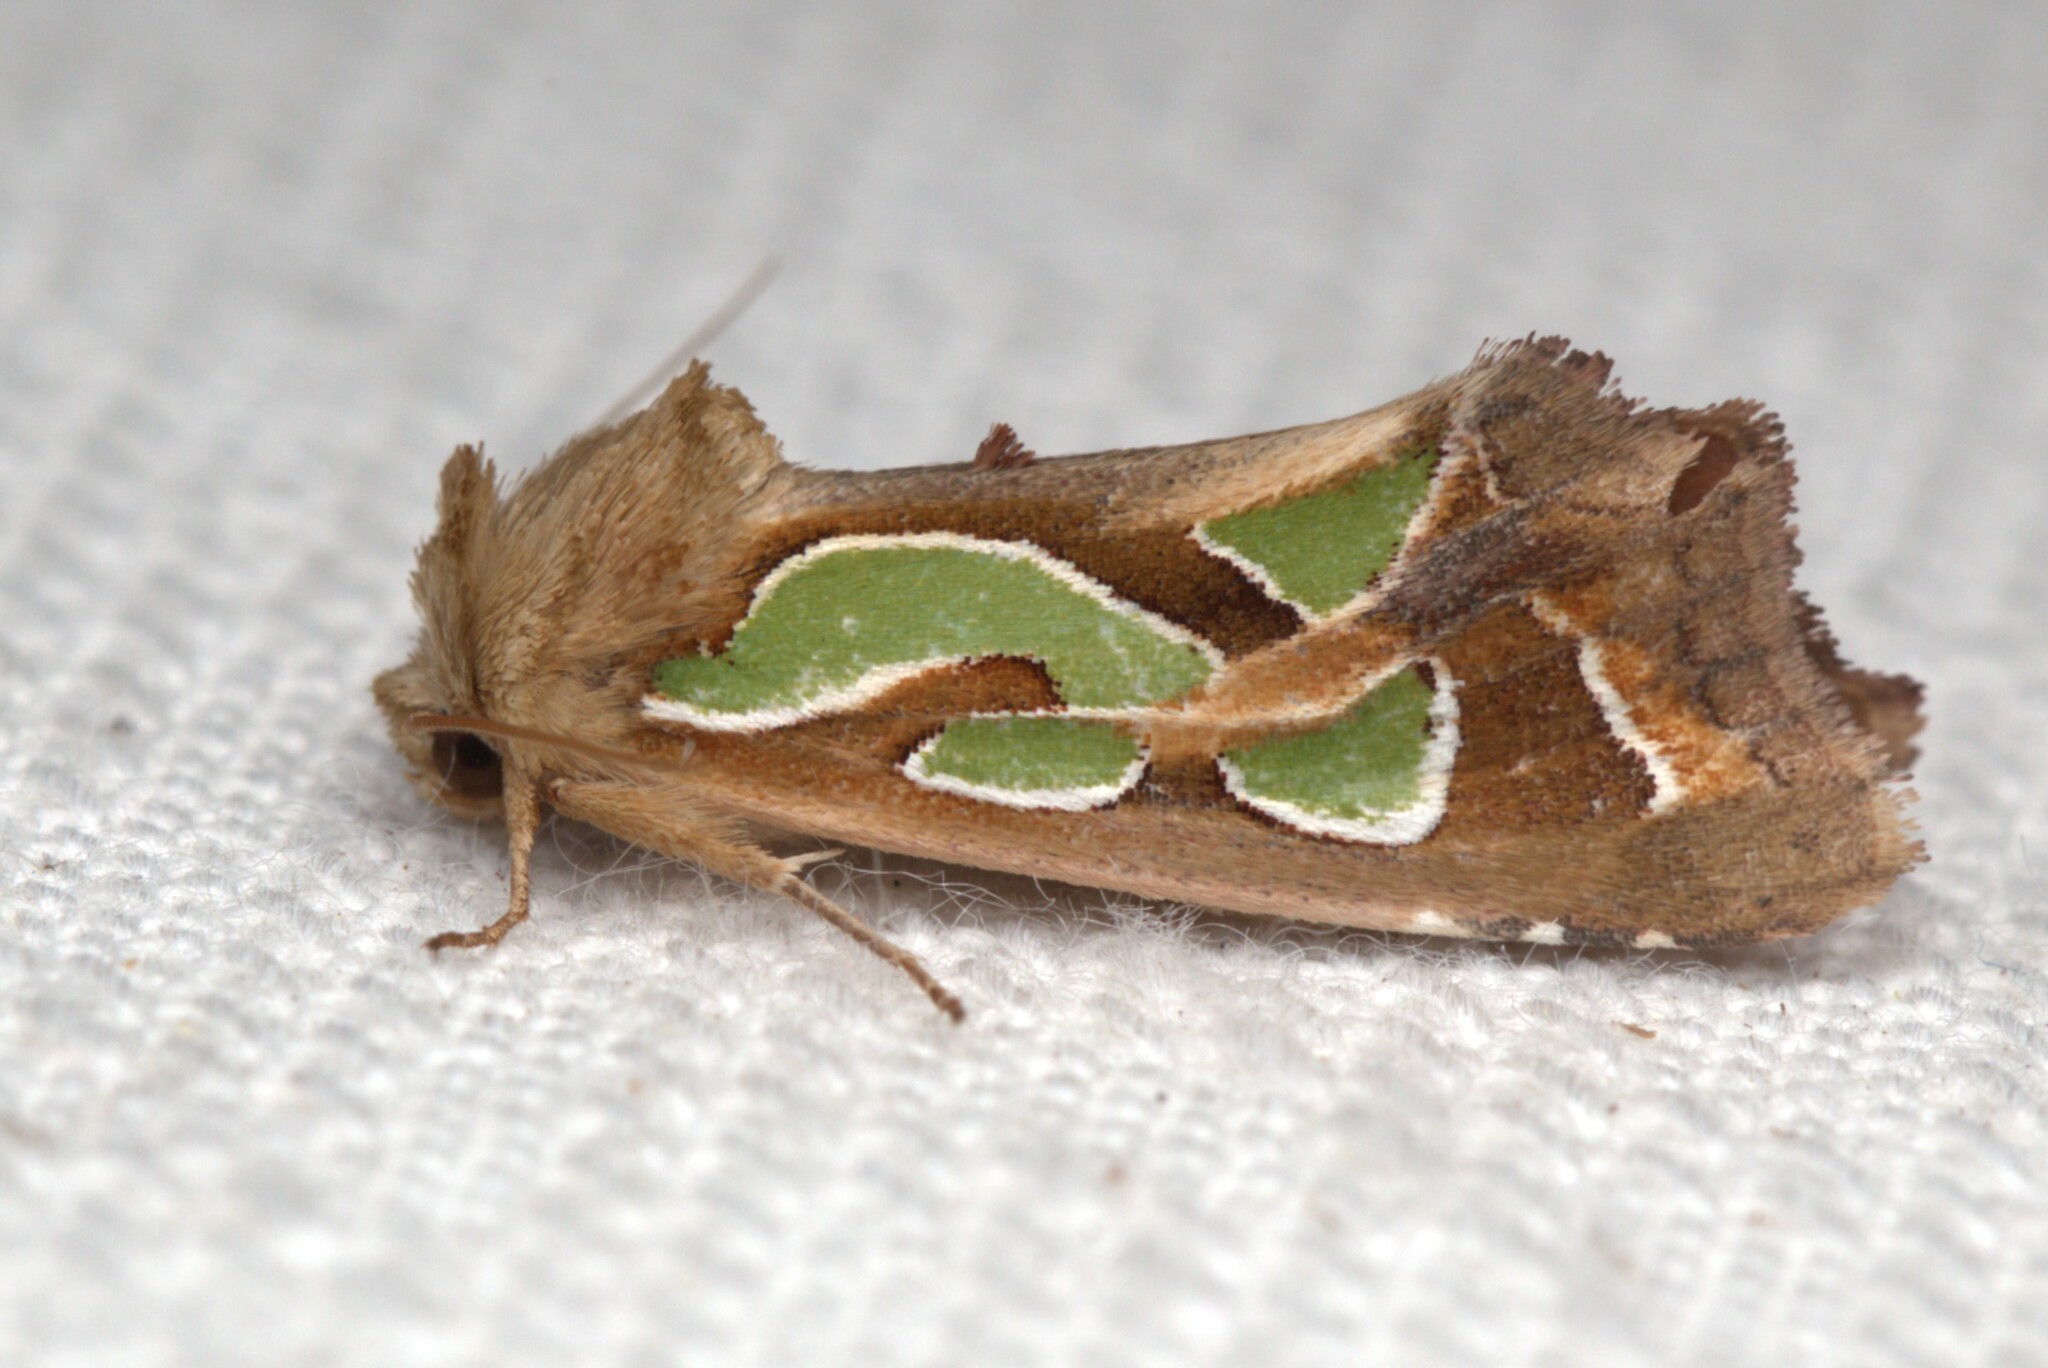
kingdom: Animalia
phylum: Arthropoda
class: Insecta
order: Lepidoptera
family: Noctuidae
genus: Cosmodes
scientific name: Cosmodes elegans
